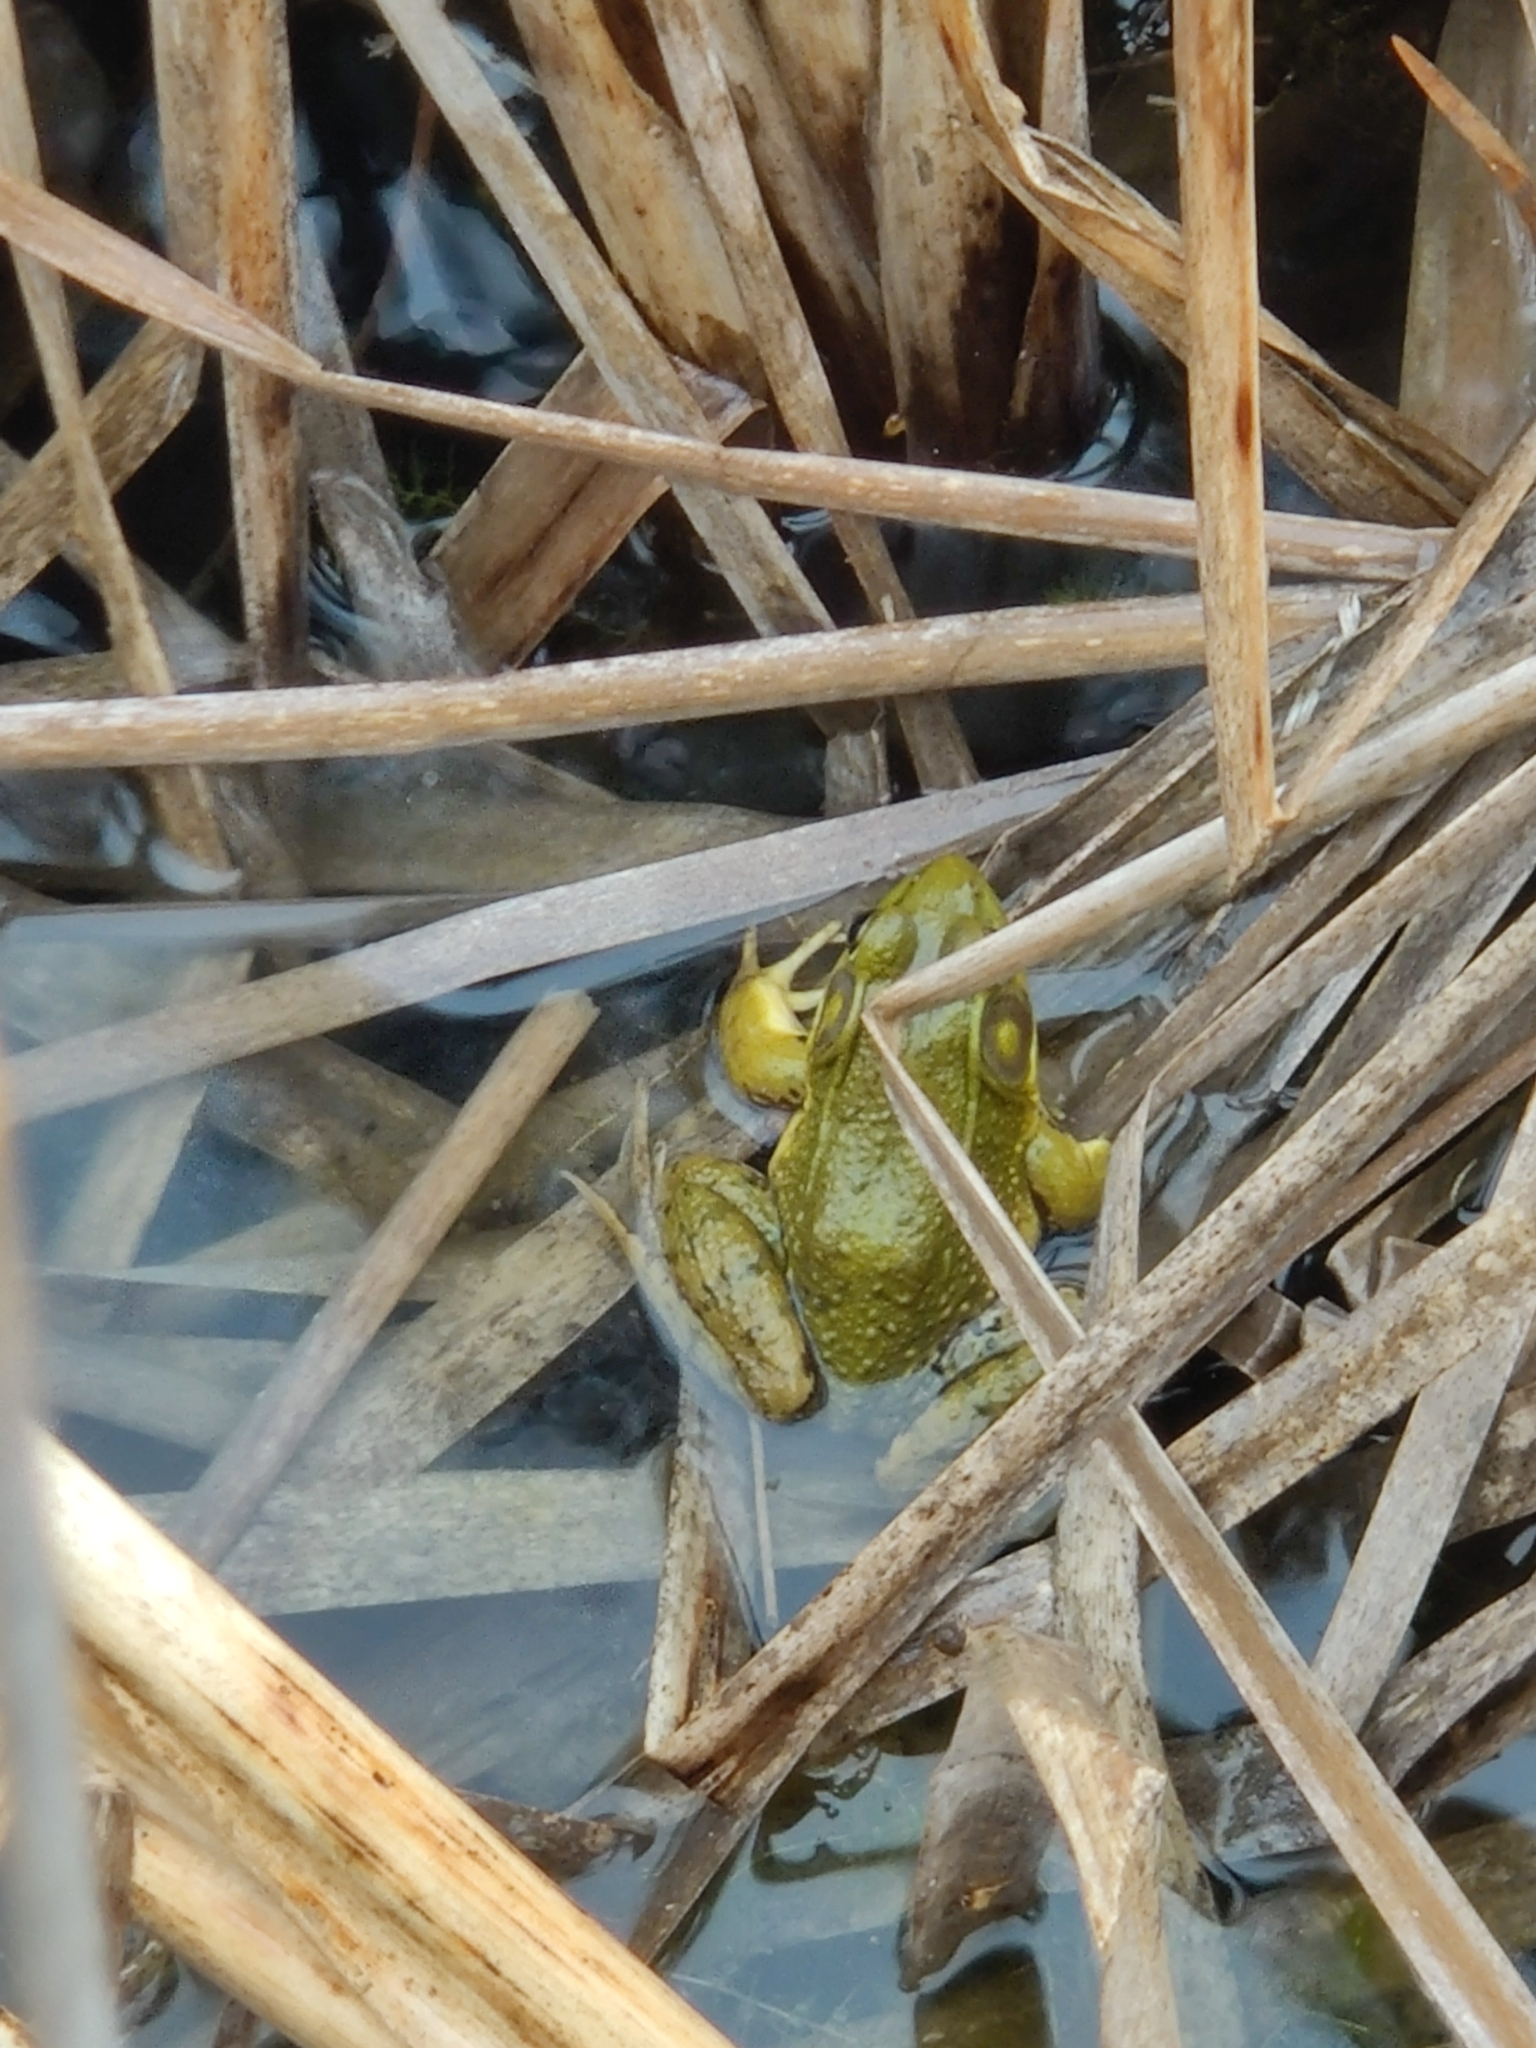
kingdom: Animalia
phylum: Chordata
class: Amphibia
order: Anura
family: Ranidae
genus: Lithobates
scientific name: Lithobates clamitans
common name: Green frog
